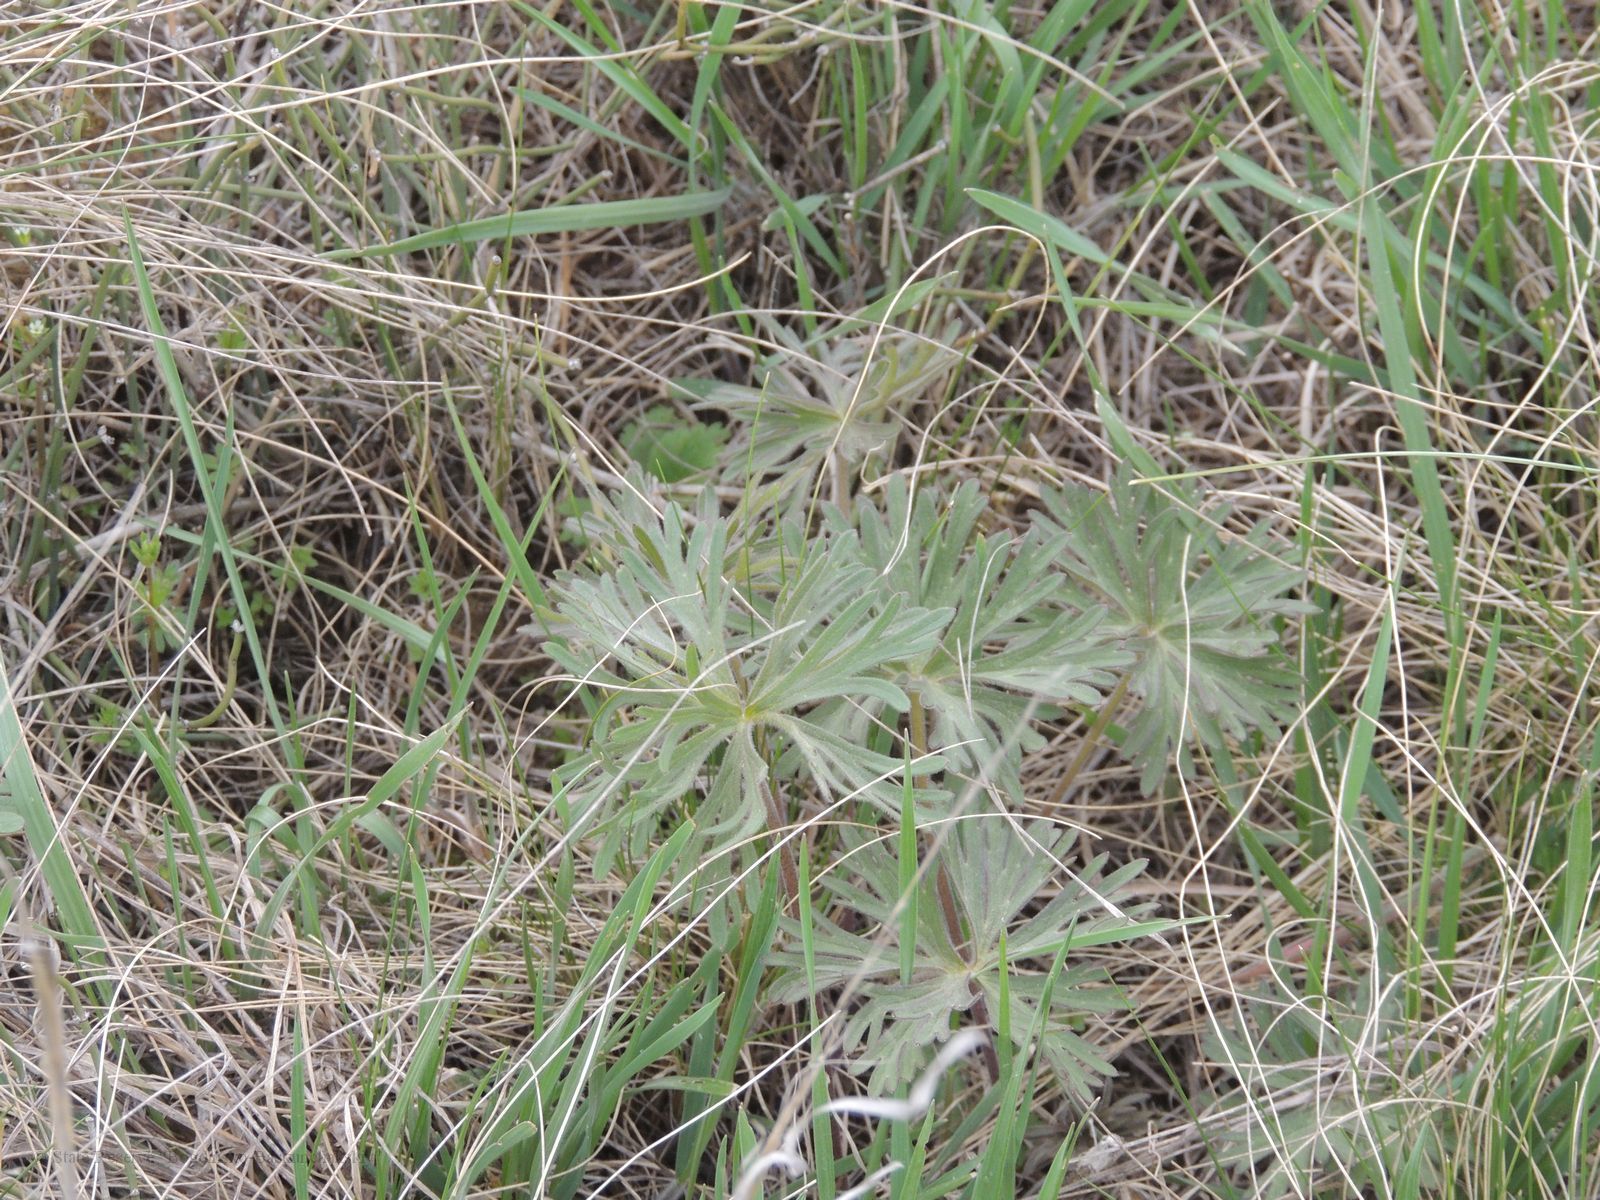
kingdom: Plantae
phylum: Tracheophyta
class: Magnoliopsida
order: Ranunculales
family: Ranunculaceae
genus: Delphinium
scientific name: Delphinium puniceum
